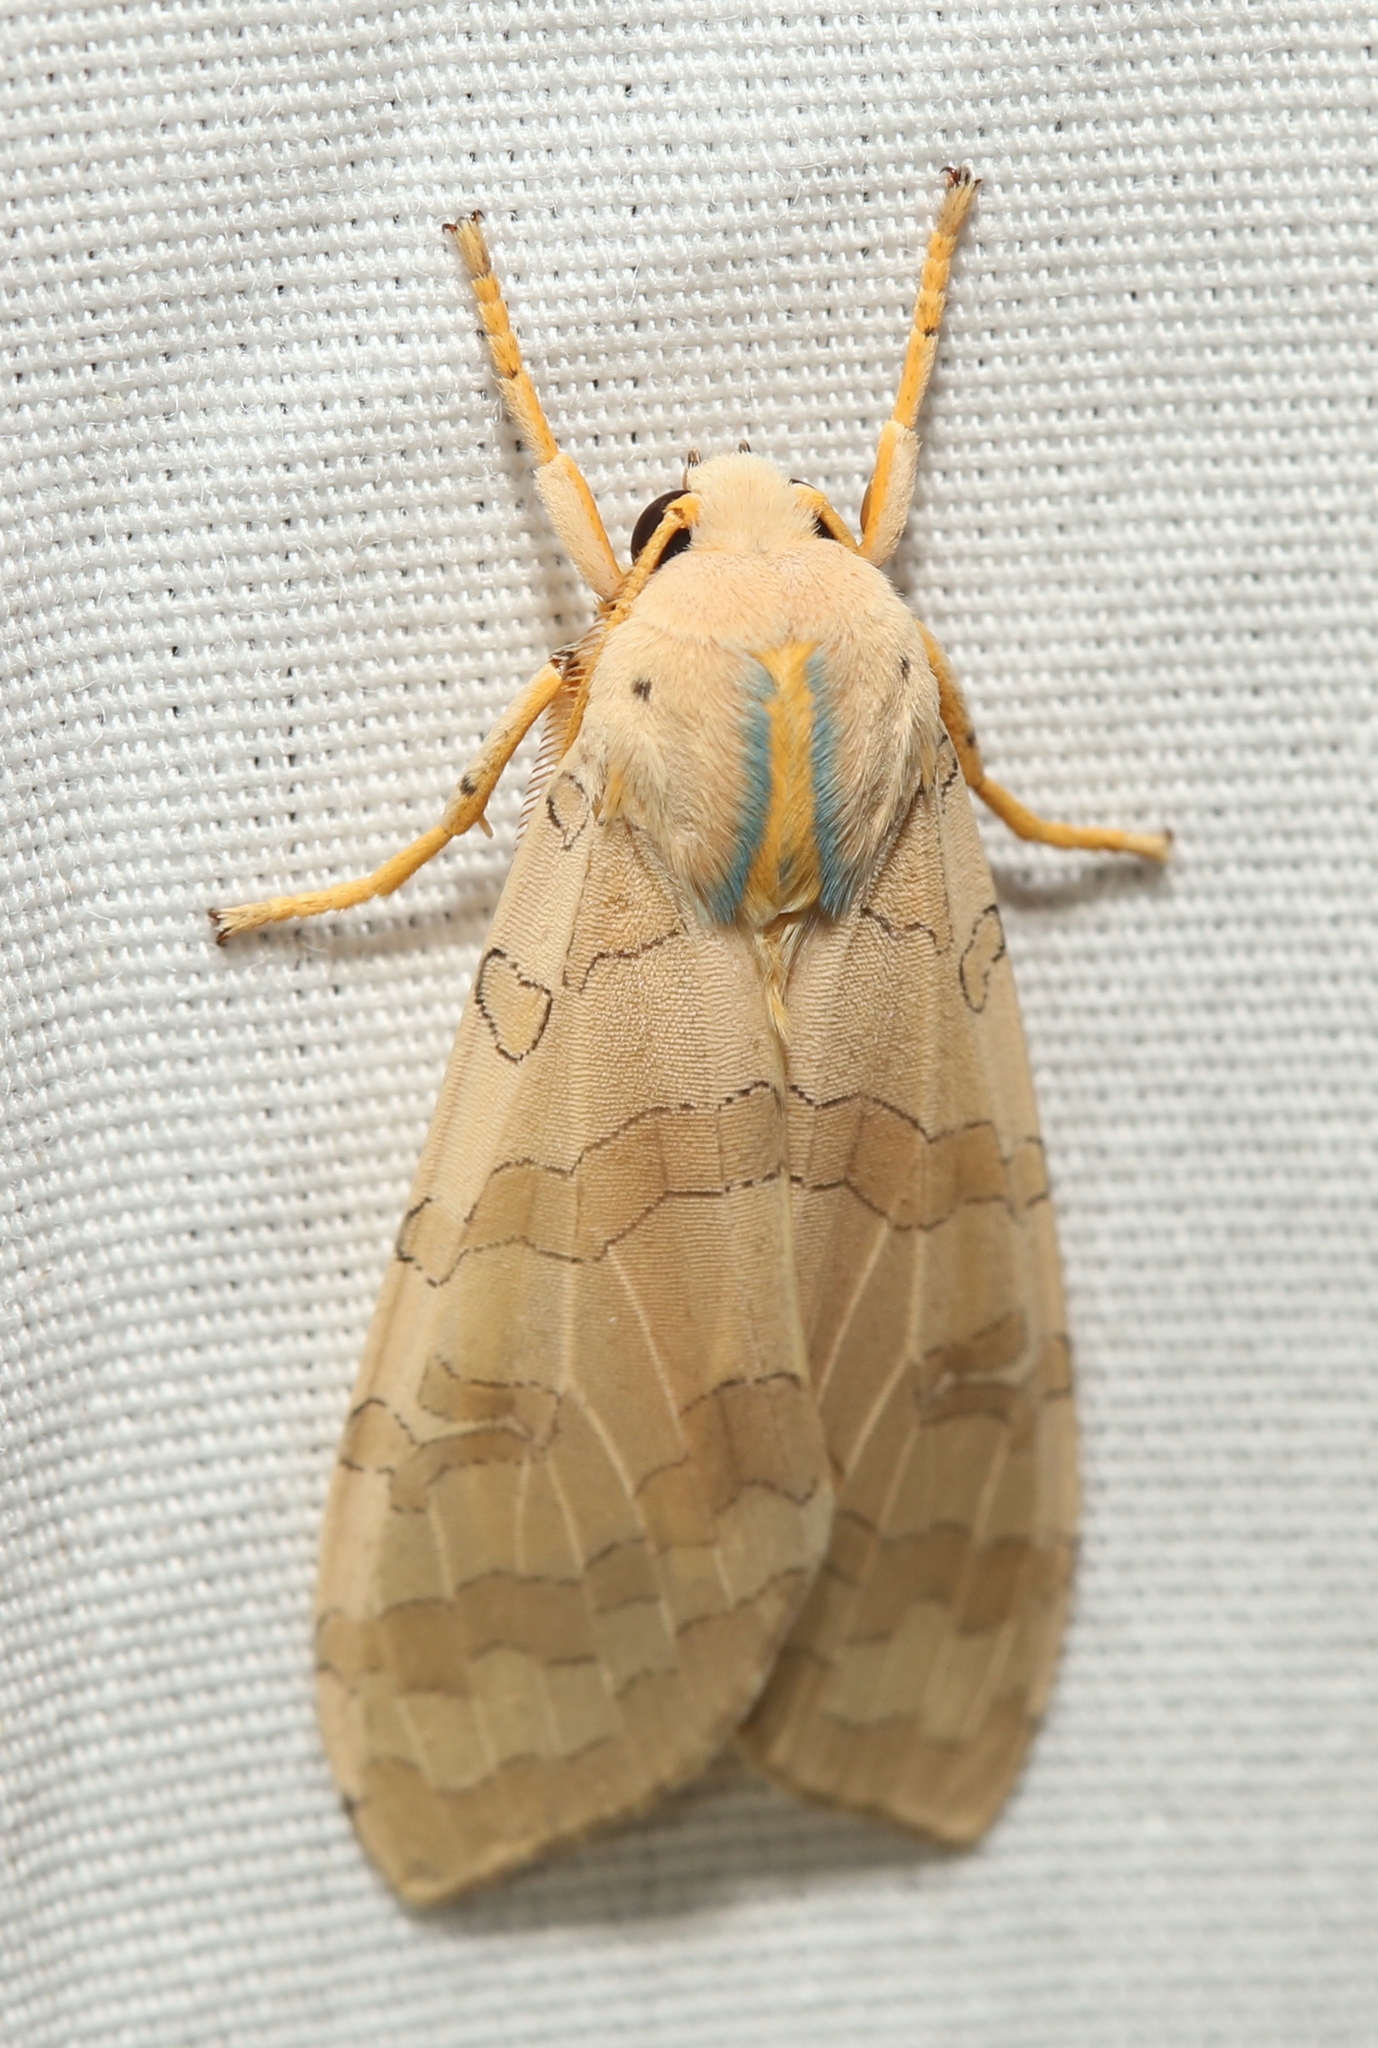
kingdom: Animalia
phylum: Arthropoda
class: Insecta
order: Lepidoptera
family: Erebidae
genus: Halysidota
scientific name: Halysidota
